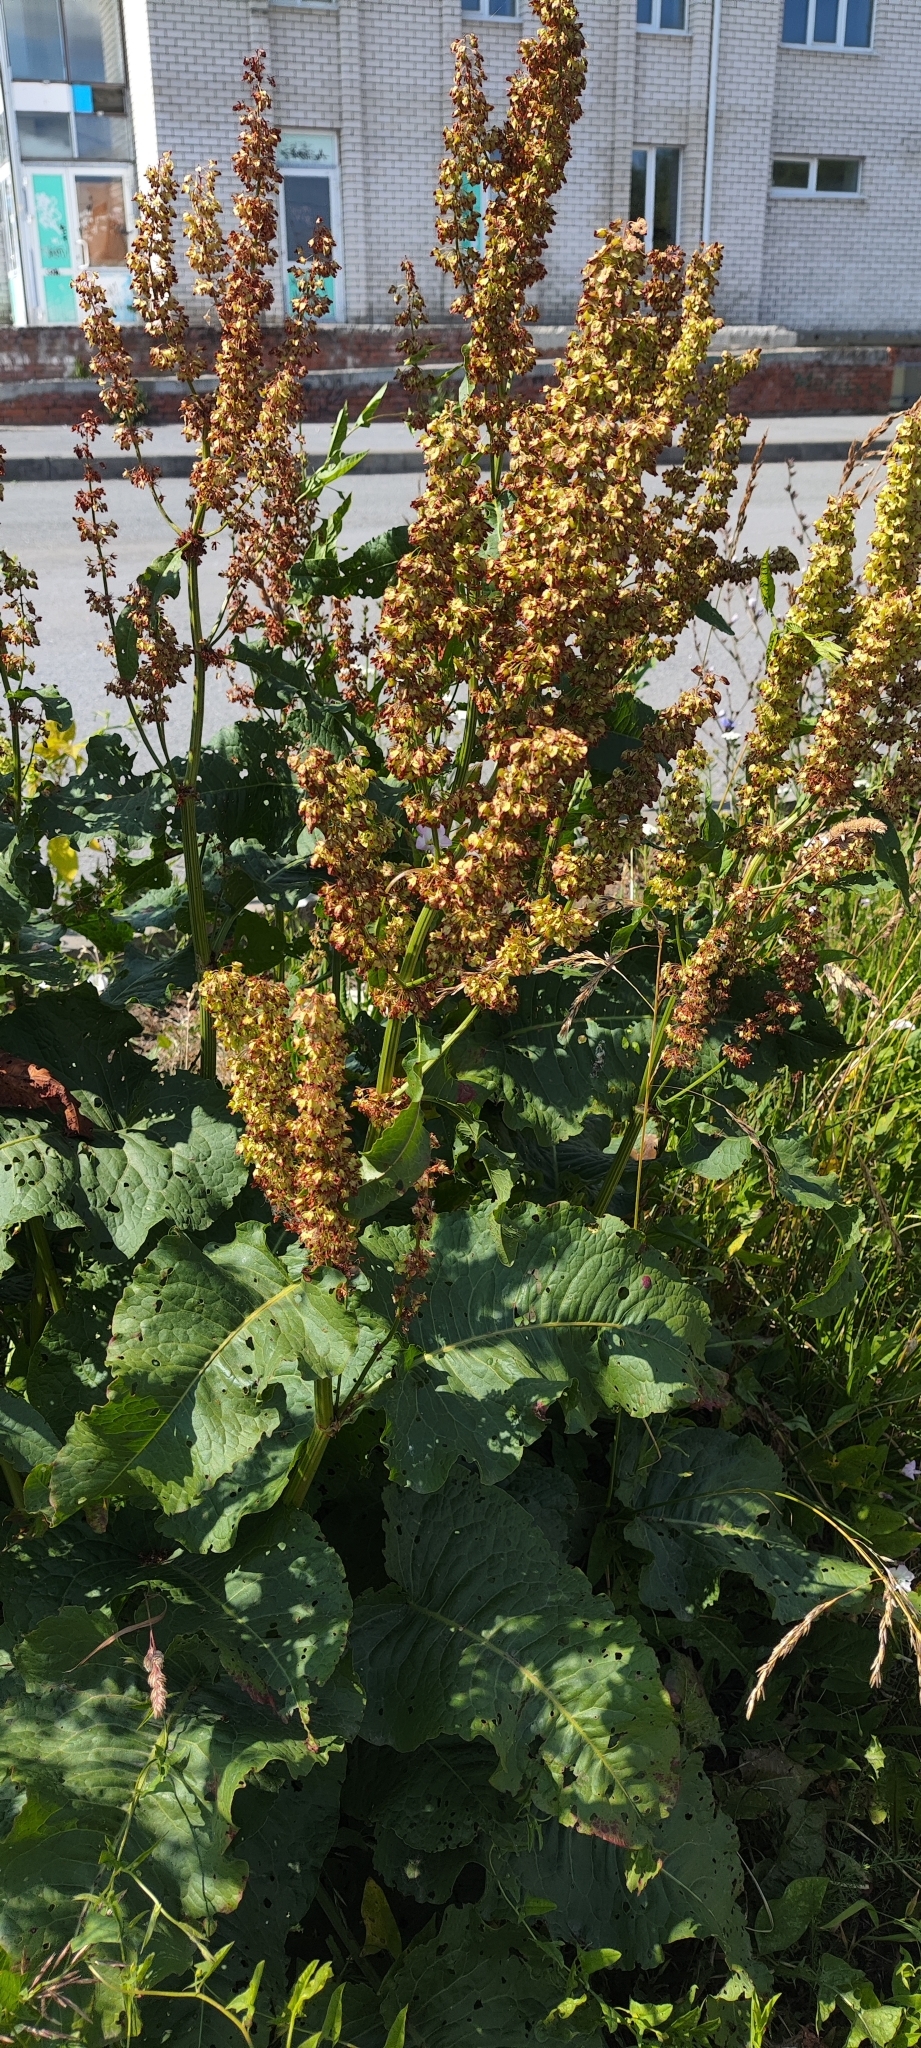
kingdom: Plantae
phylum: Tracheophyta
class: Magnoliopsida
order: Caryophyllales
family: Polygonaceae
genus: Rumex
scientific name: Rumex confertus
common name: Russian dock
